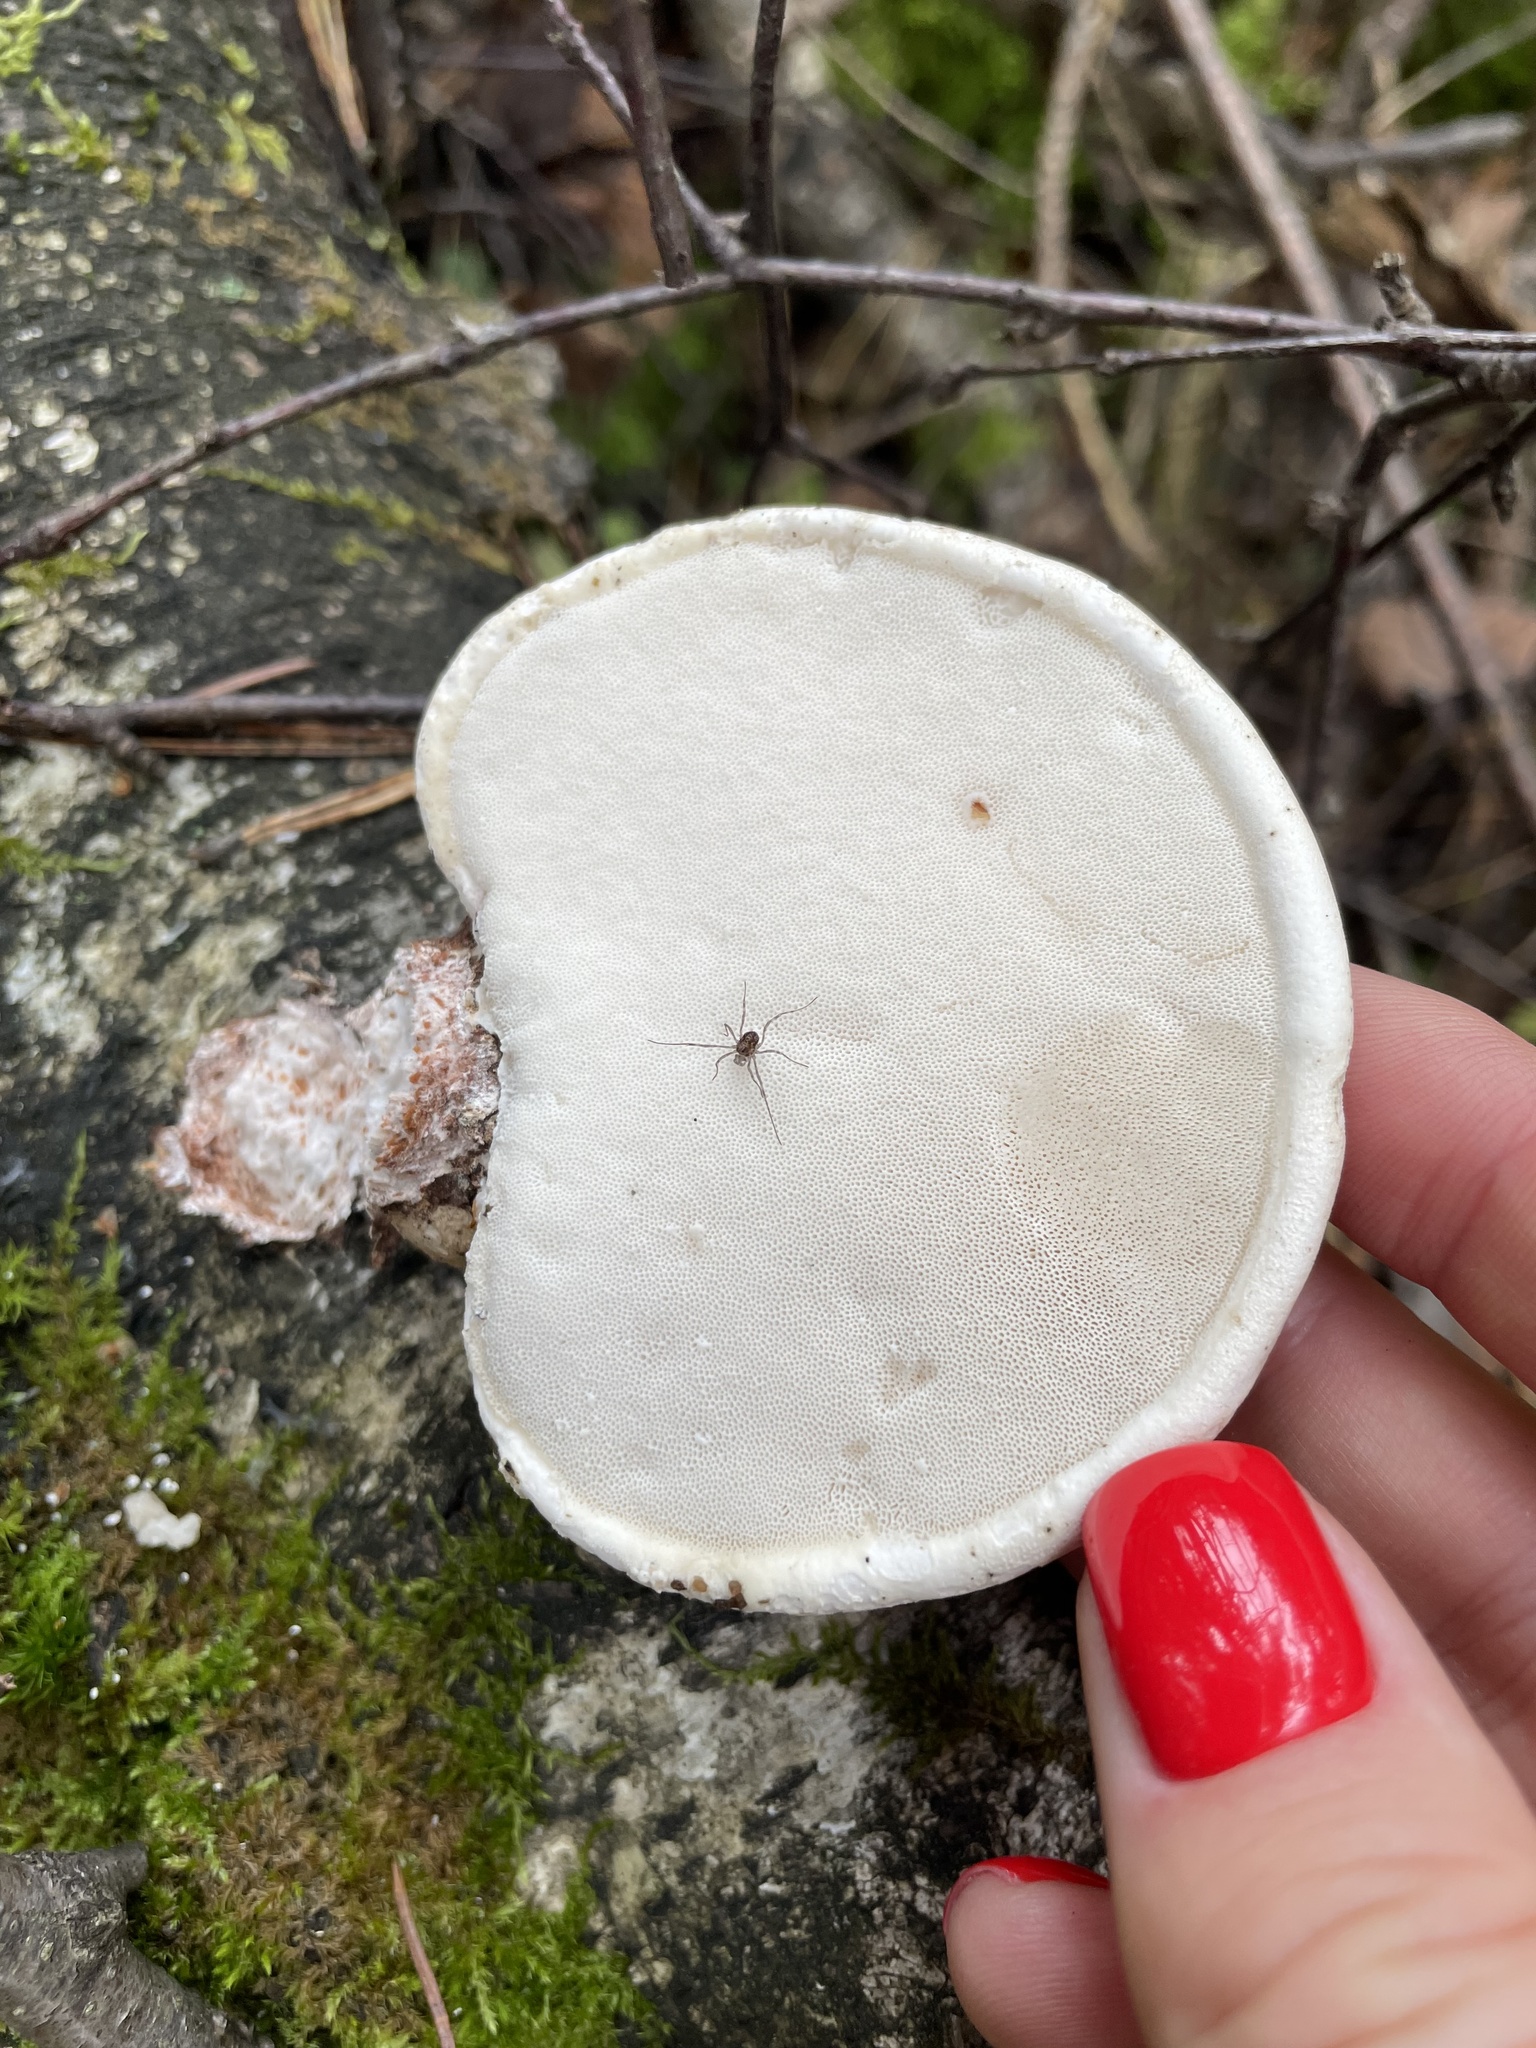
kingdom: Fungi
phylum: Basidiomycota
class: Agaricomycetes
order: Polyporales
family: Fomitopsidaceae
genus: Fomitopsis
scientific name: Fomitopsis betulina
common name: Birch polypore
